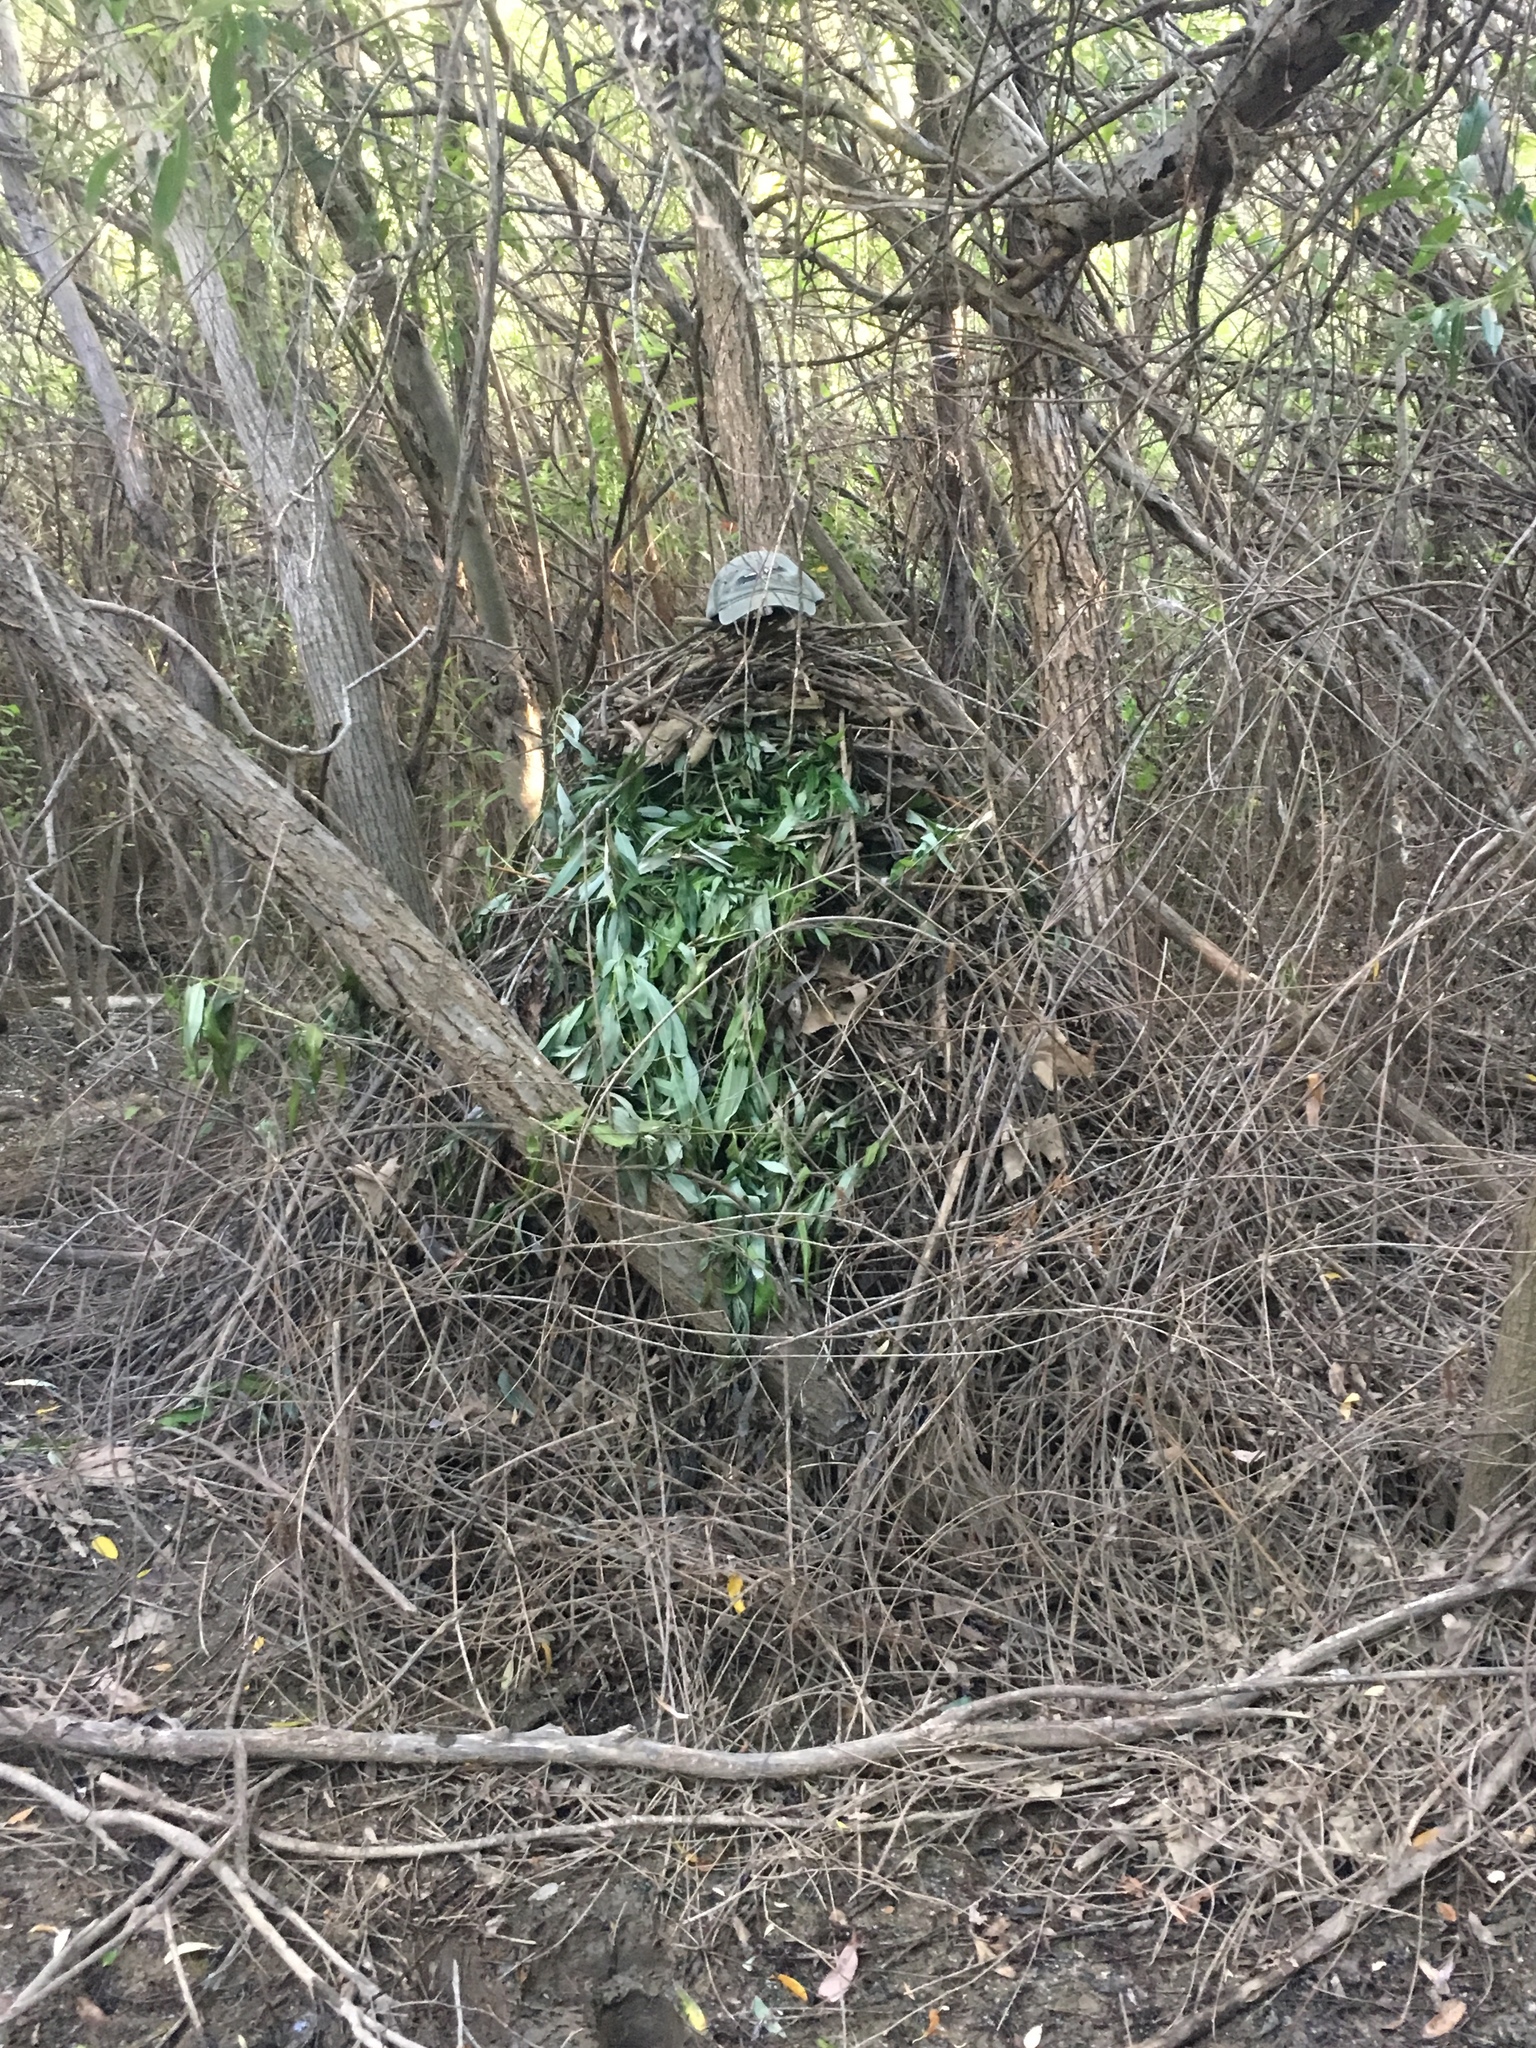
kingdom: Animalia
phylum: Chordata
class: Mammalia
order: Rodentia
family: Cricetidae
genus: Neotoma
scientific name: Neotoma fuscipes
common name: Dusky-footed woodrat
